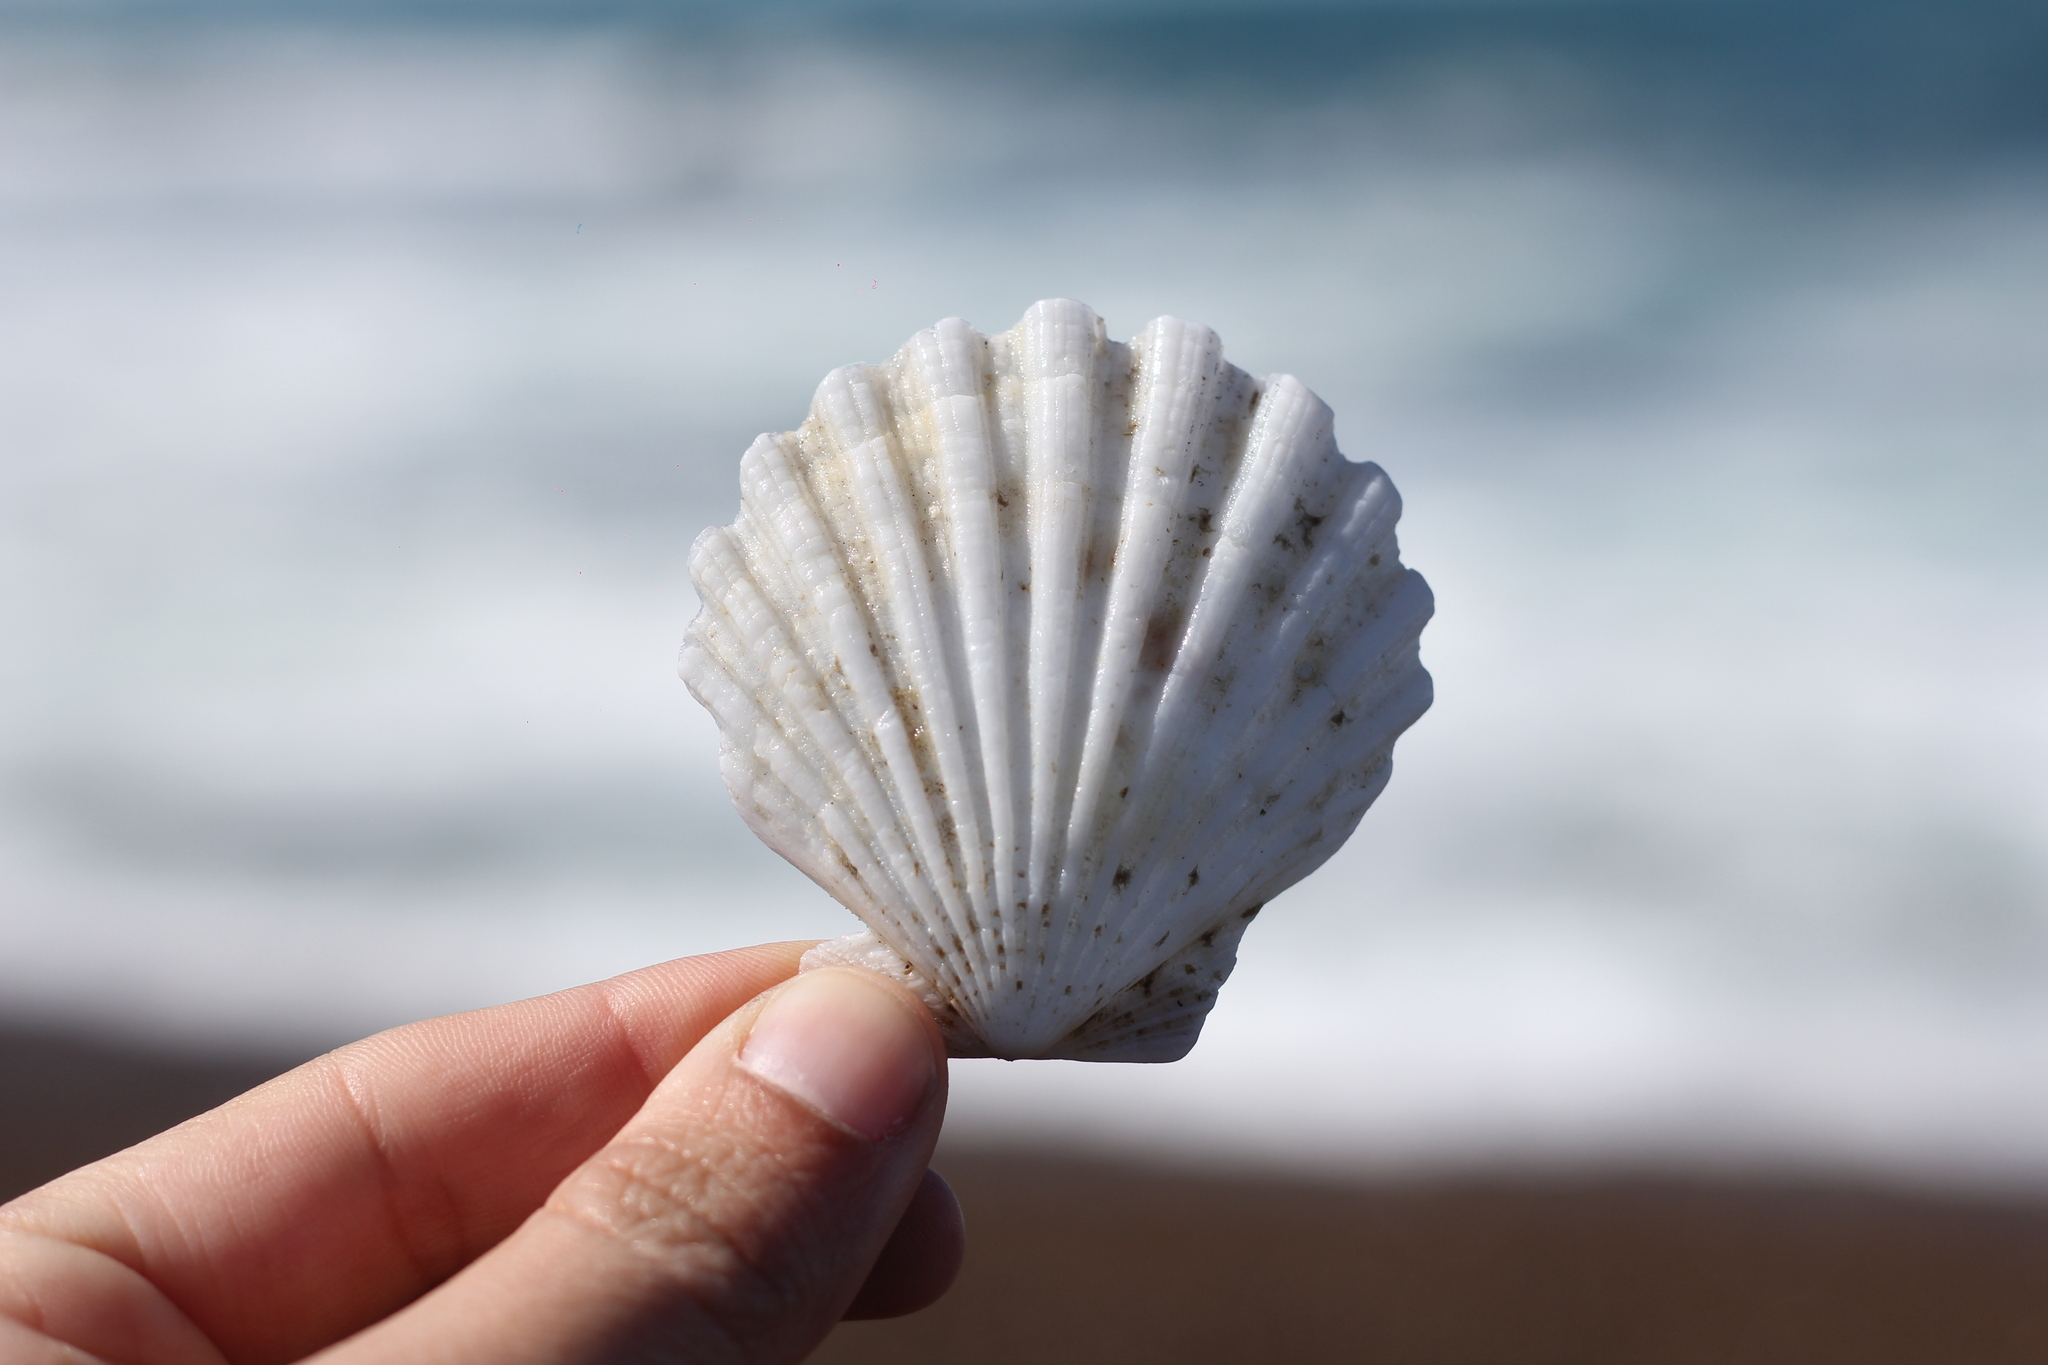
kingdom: Animalia
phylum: Mollusca
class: Bivalvia
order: Pectinida
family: Pectinidae
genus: Aequipecten
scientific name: Aequipecten tehuelchus
